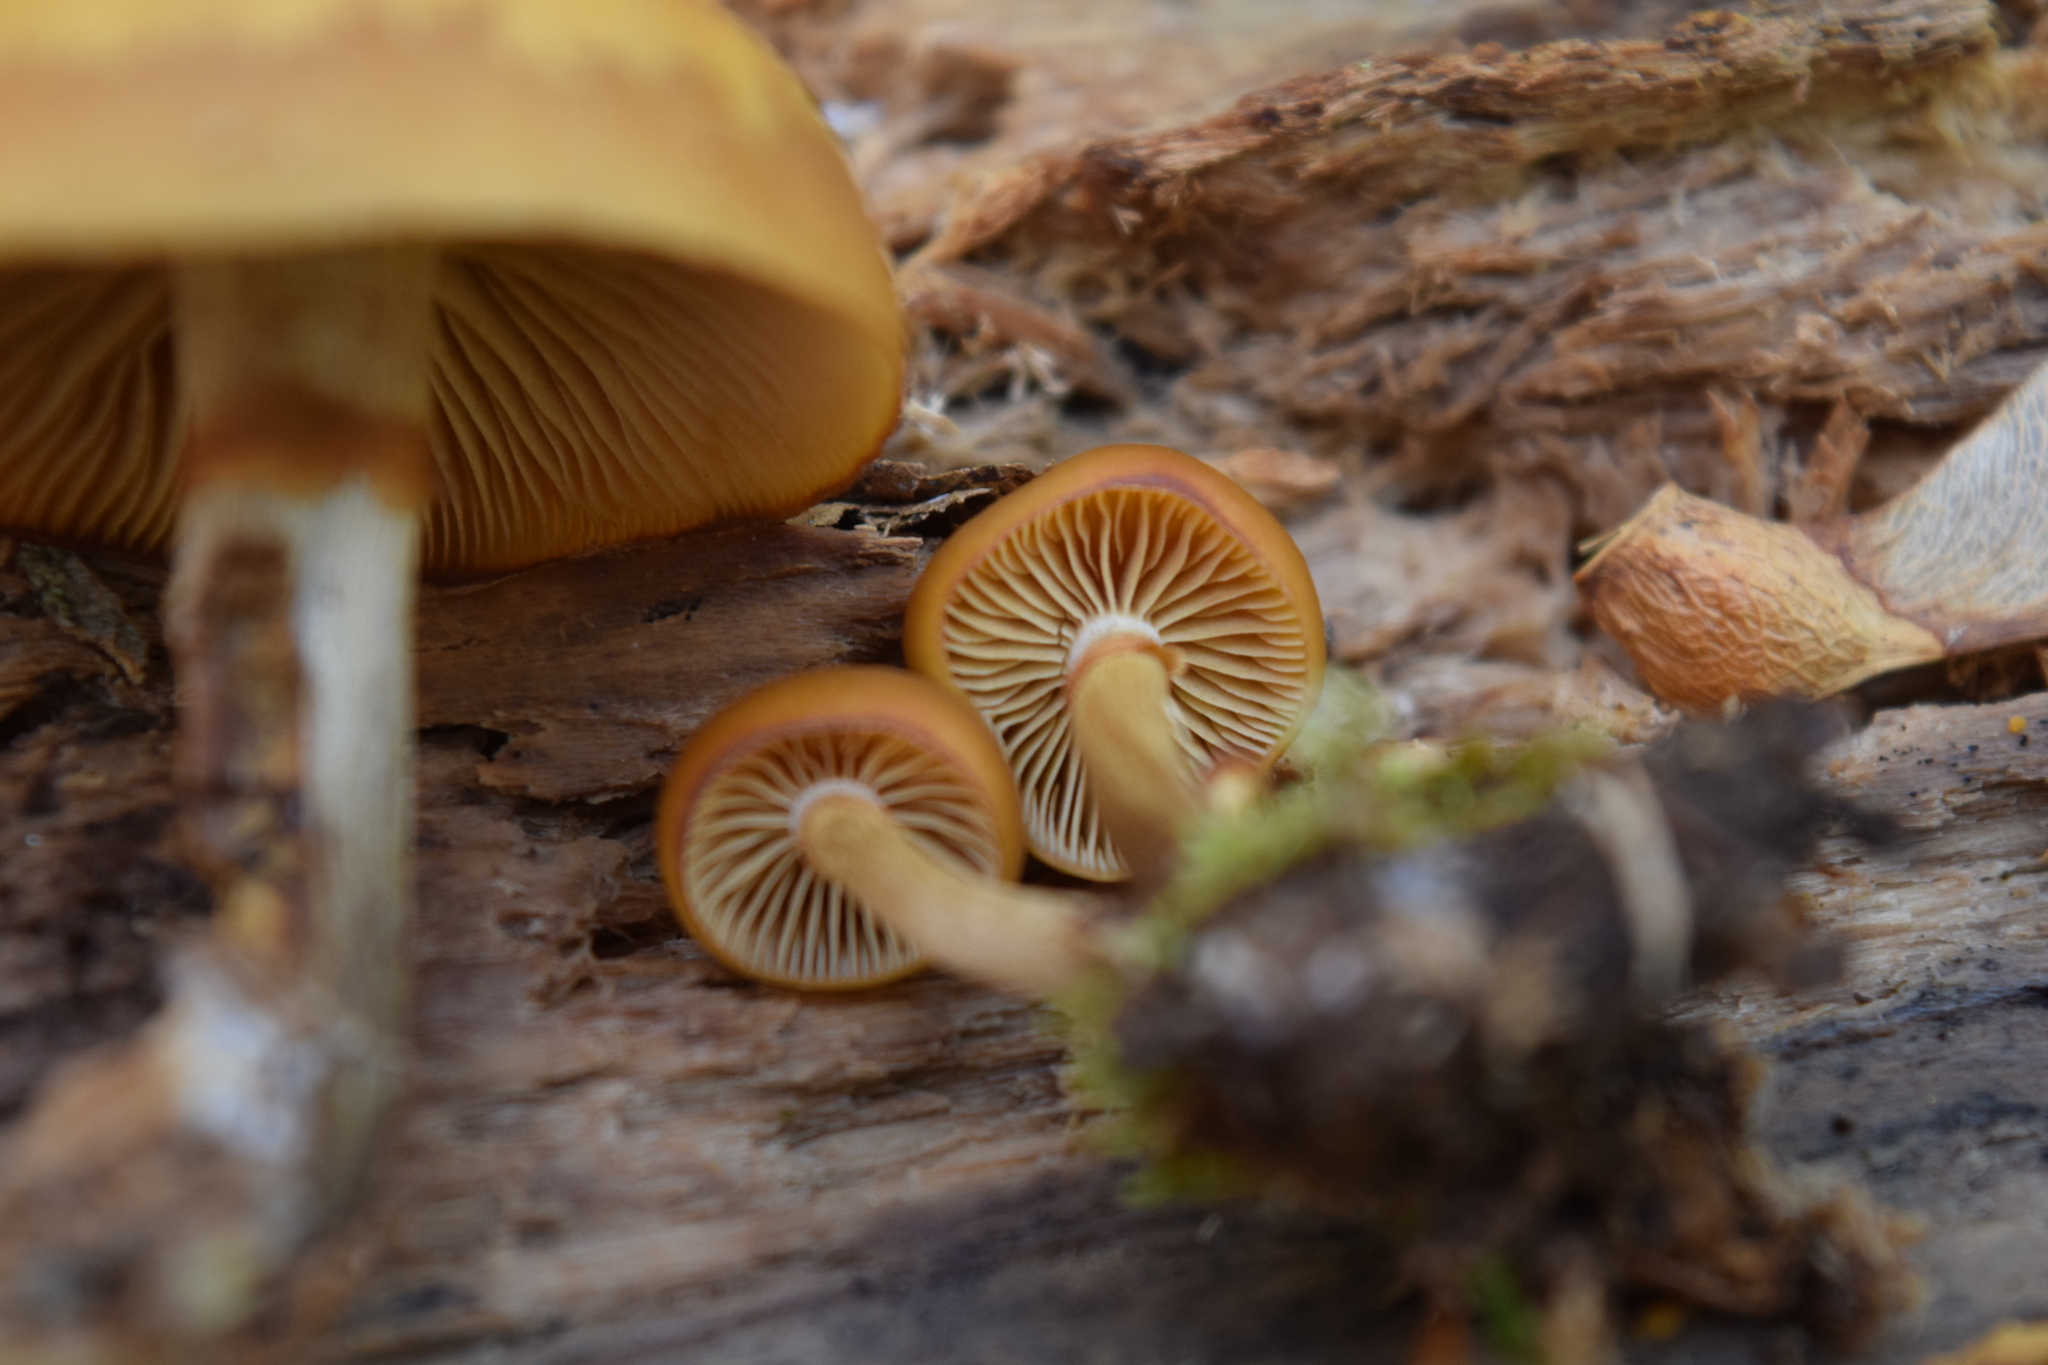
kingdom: Fungi
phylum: Basidiomycota
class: Agaricomycetes
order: Agaricales
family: Hymenogastraceae
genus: Galerina
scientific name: Galerina marginata
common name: Funeral bell
